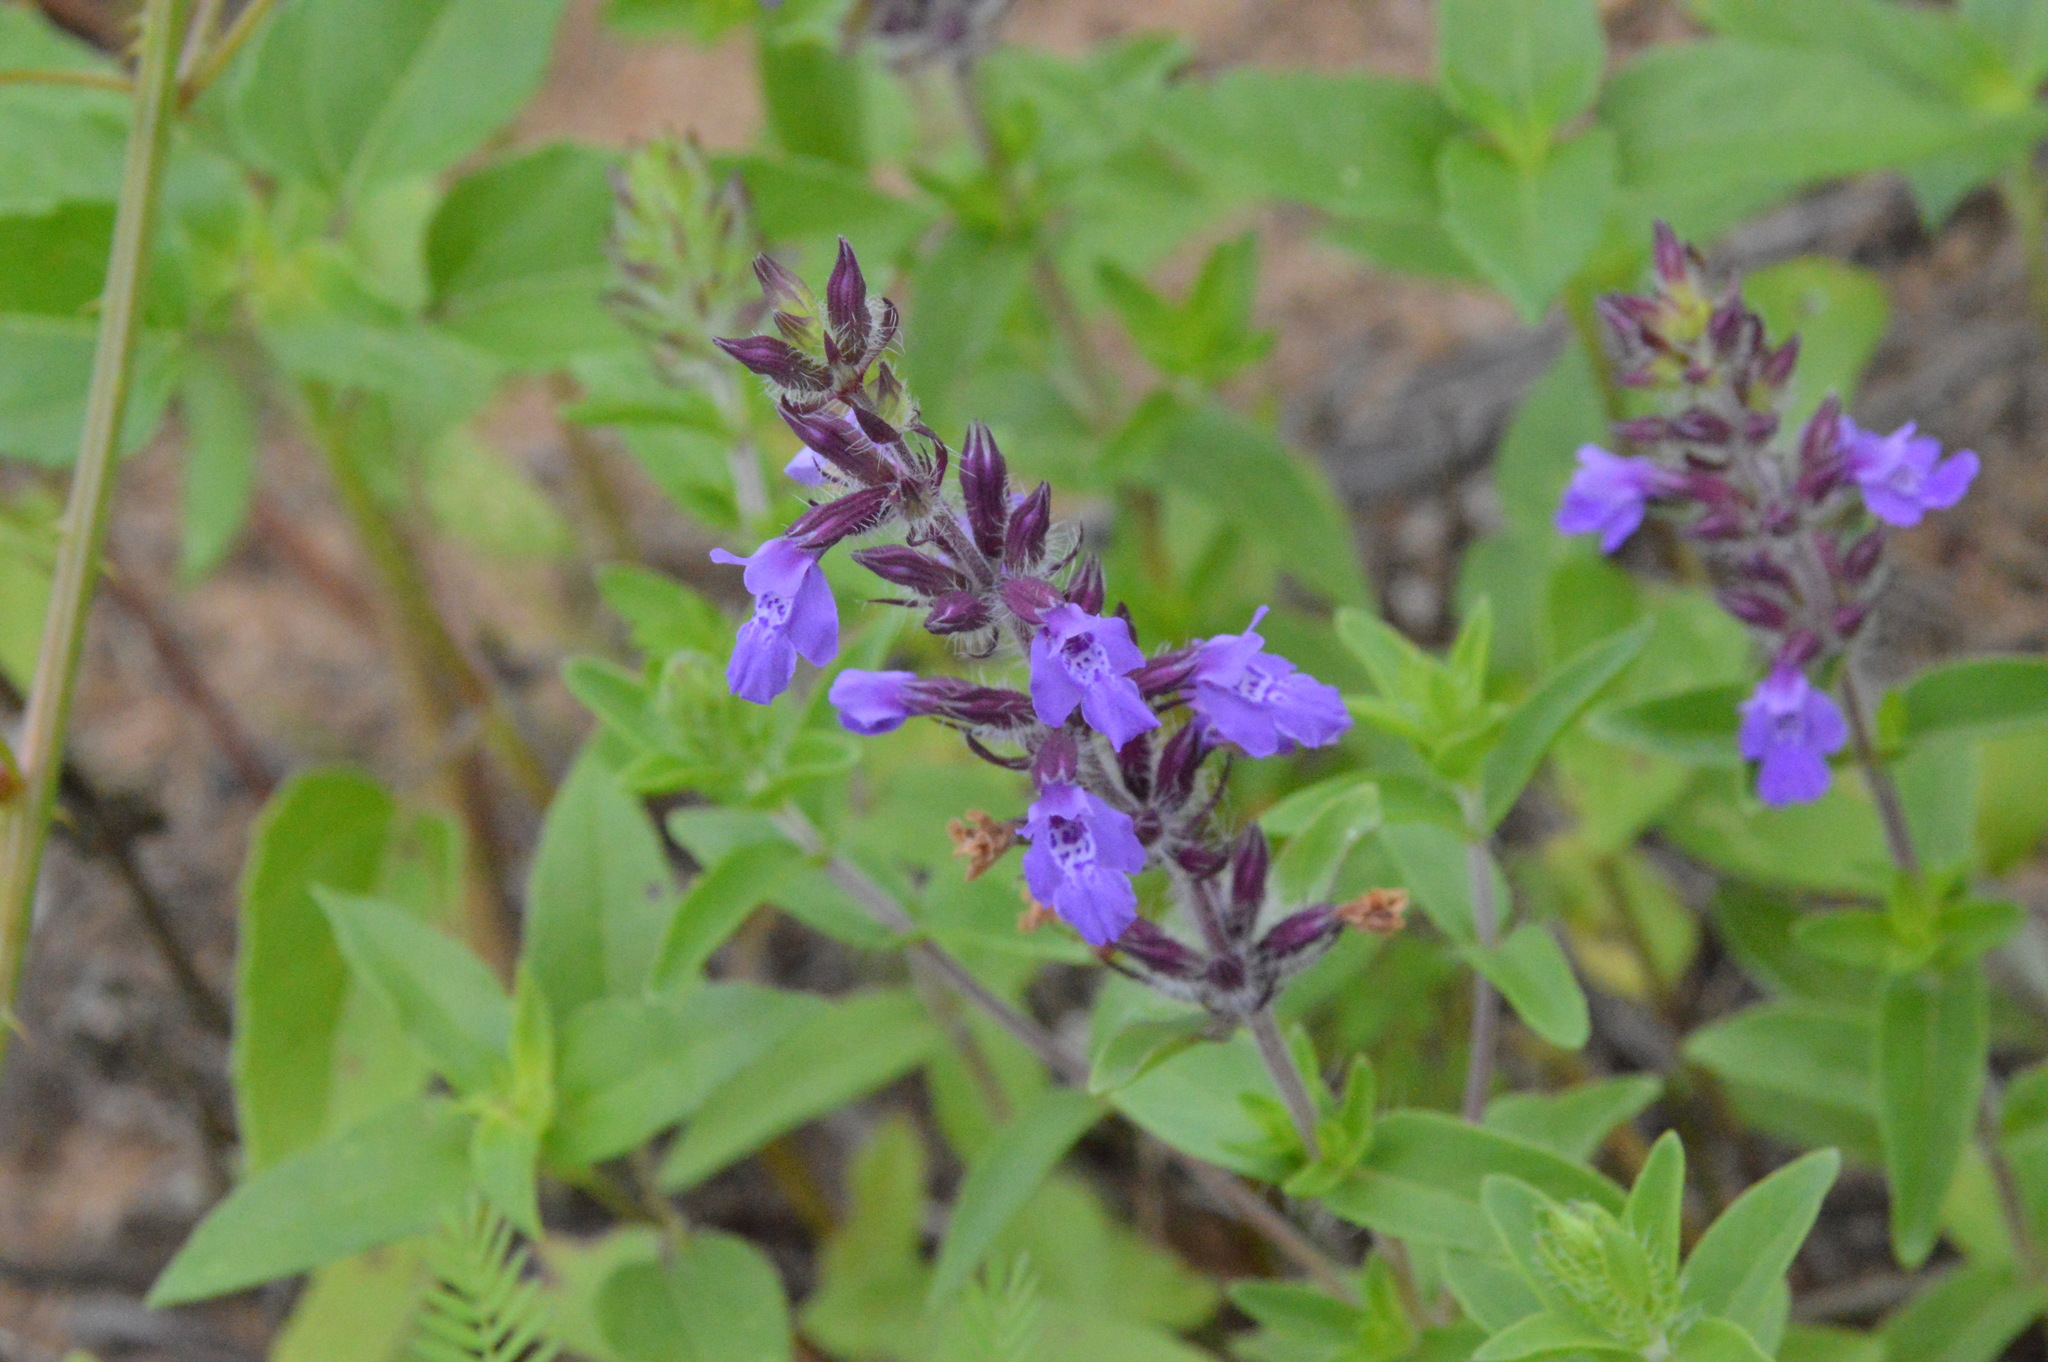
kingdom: Plantae
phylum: Tracheophyta
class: Magnoliopsida
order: Lamiales
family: Lamiaceae
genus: Rhododon
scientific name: Rhododon ciliatus
